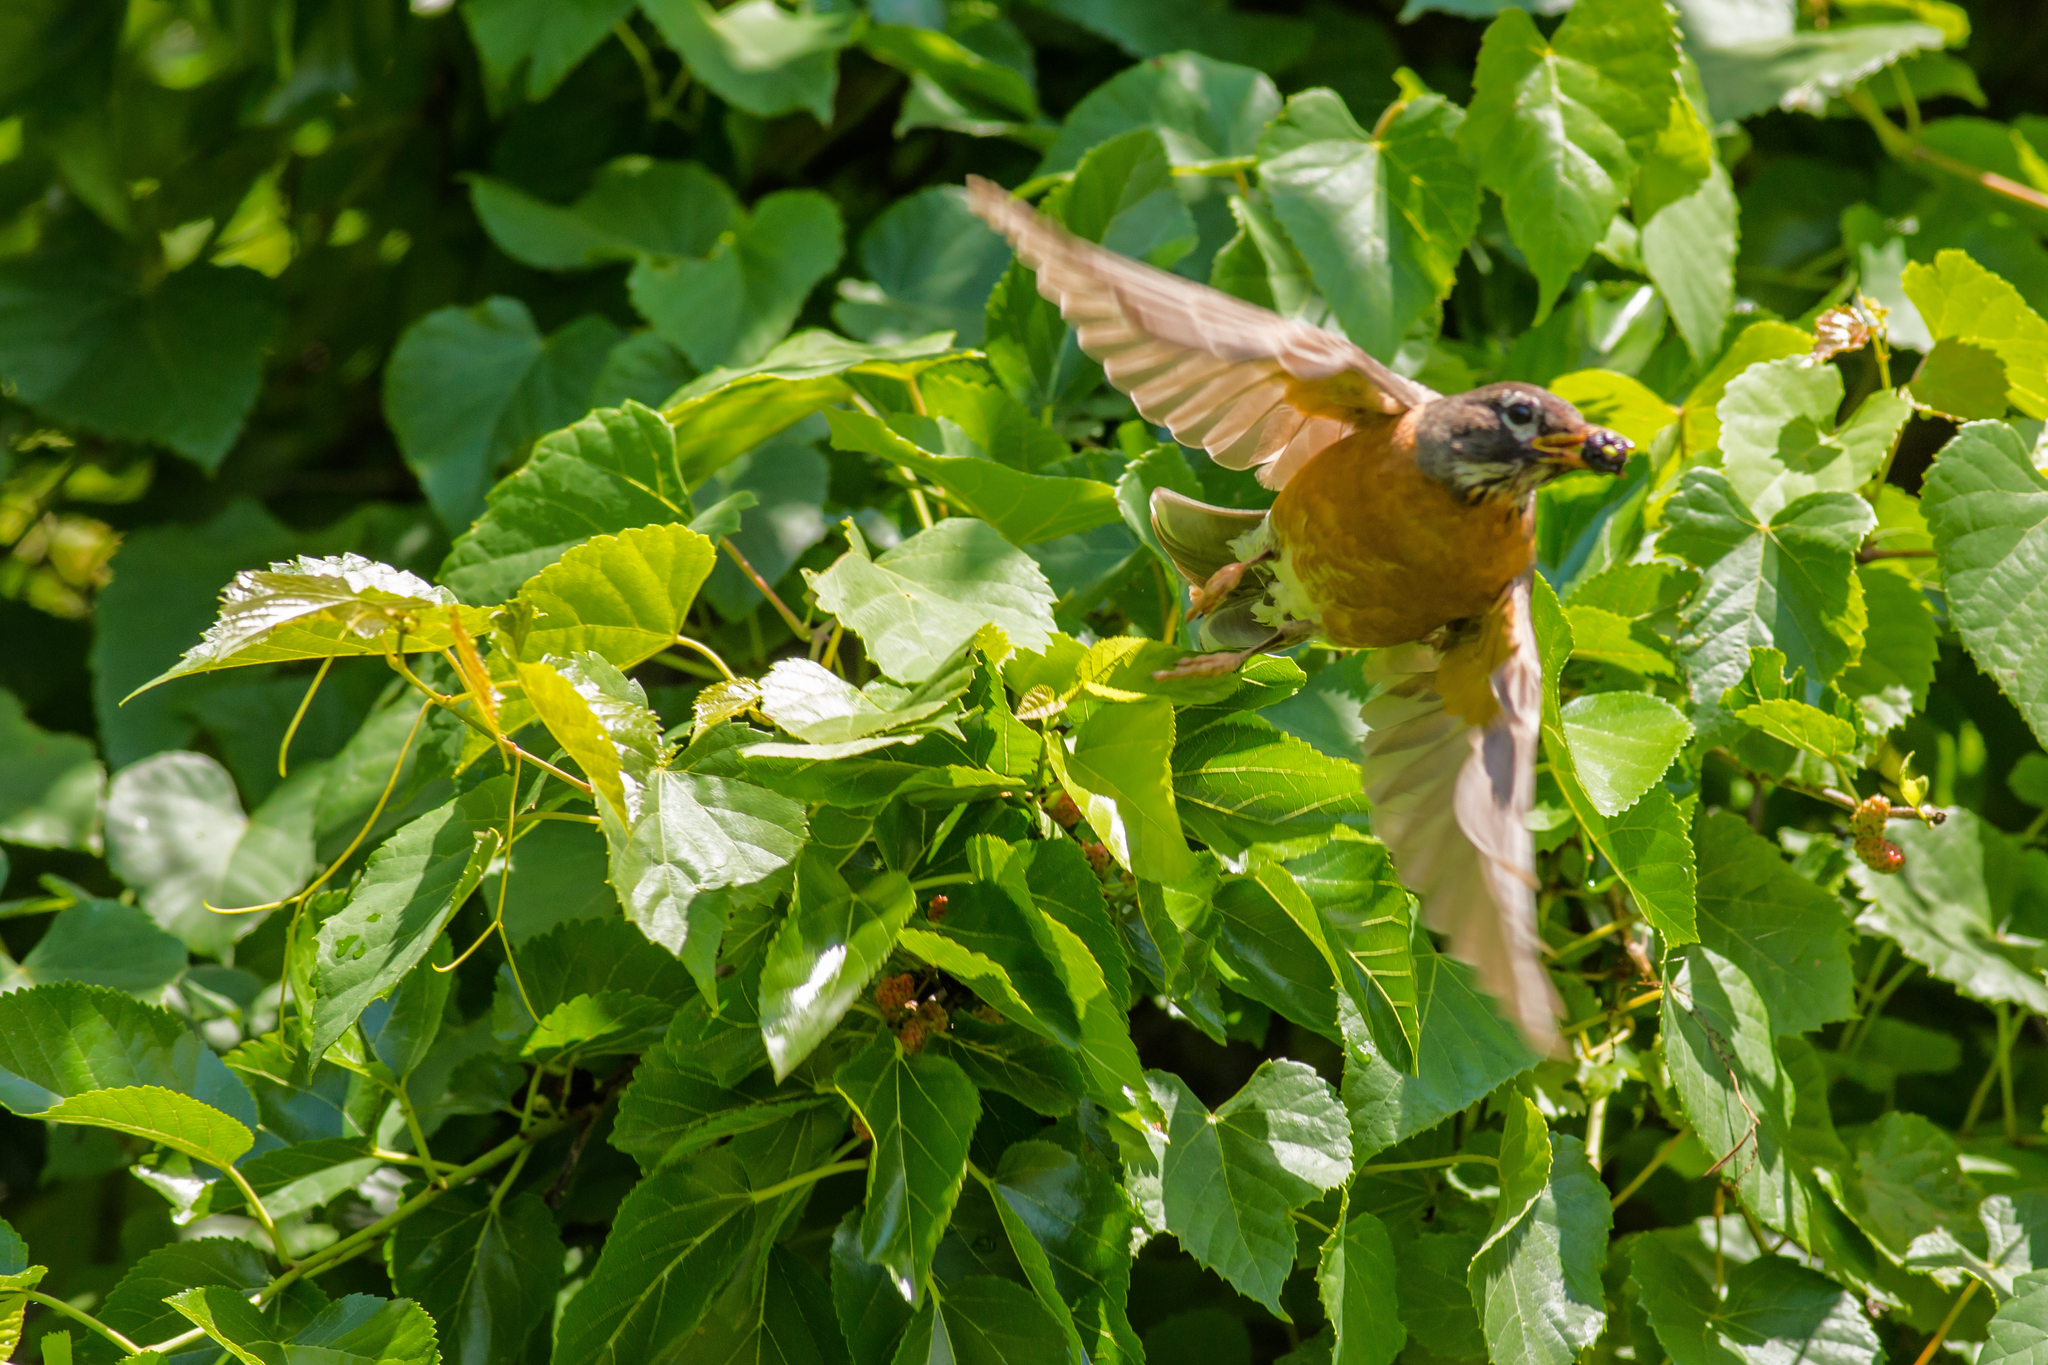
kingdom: Animalia
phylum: Chordata
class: Aves
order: Passeriformes
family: Turdidae
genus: Turdus
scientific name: Turdus migratorius
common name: American robin
